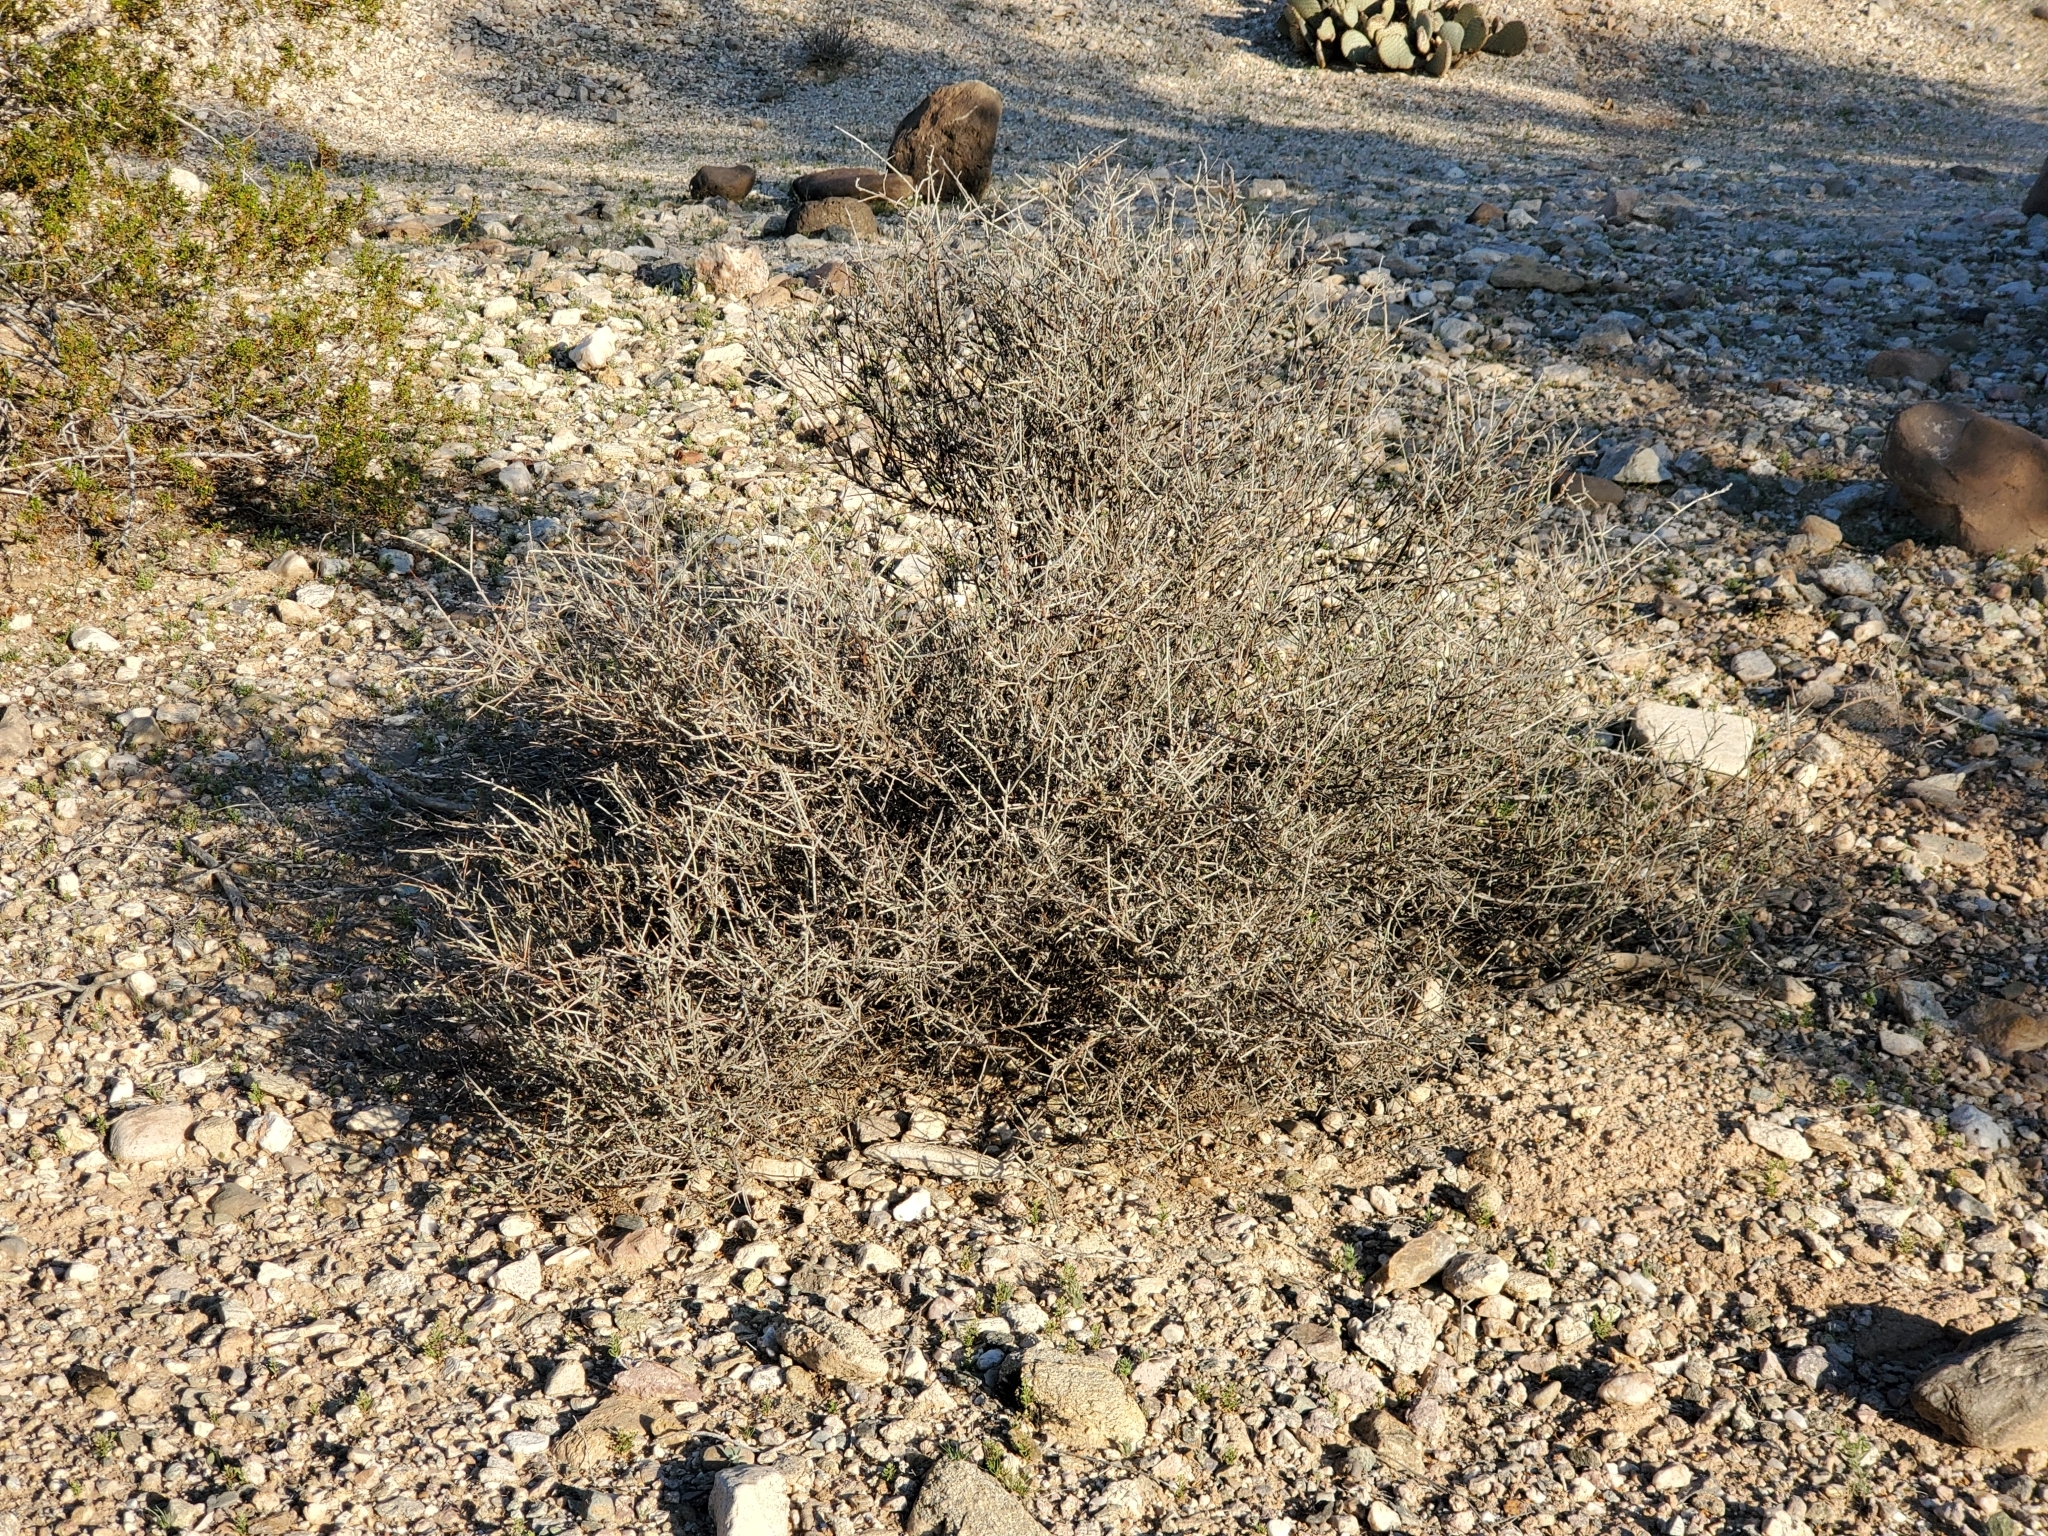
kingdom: Plantae
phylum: Tracheophyta
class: Magnoliopsida
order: Zygophyllales
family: Krameriaceae
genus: Krameria
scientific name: Krameria bicolor
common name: White ratany
